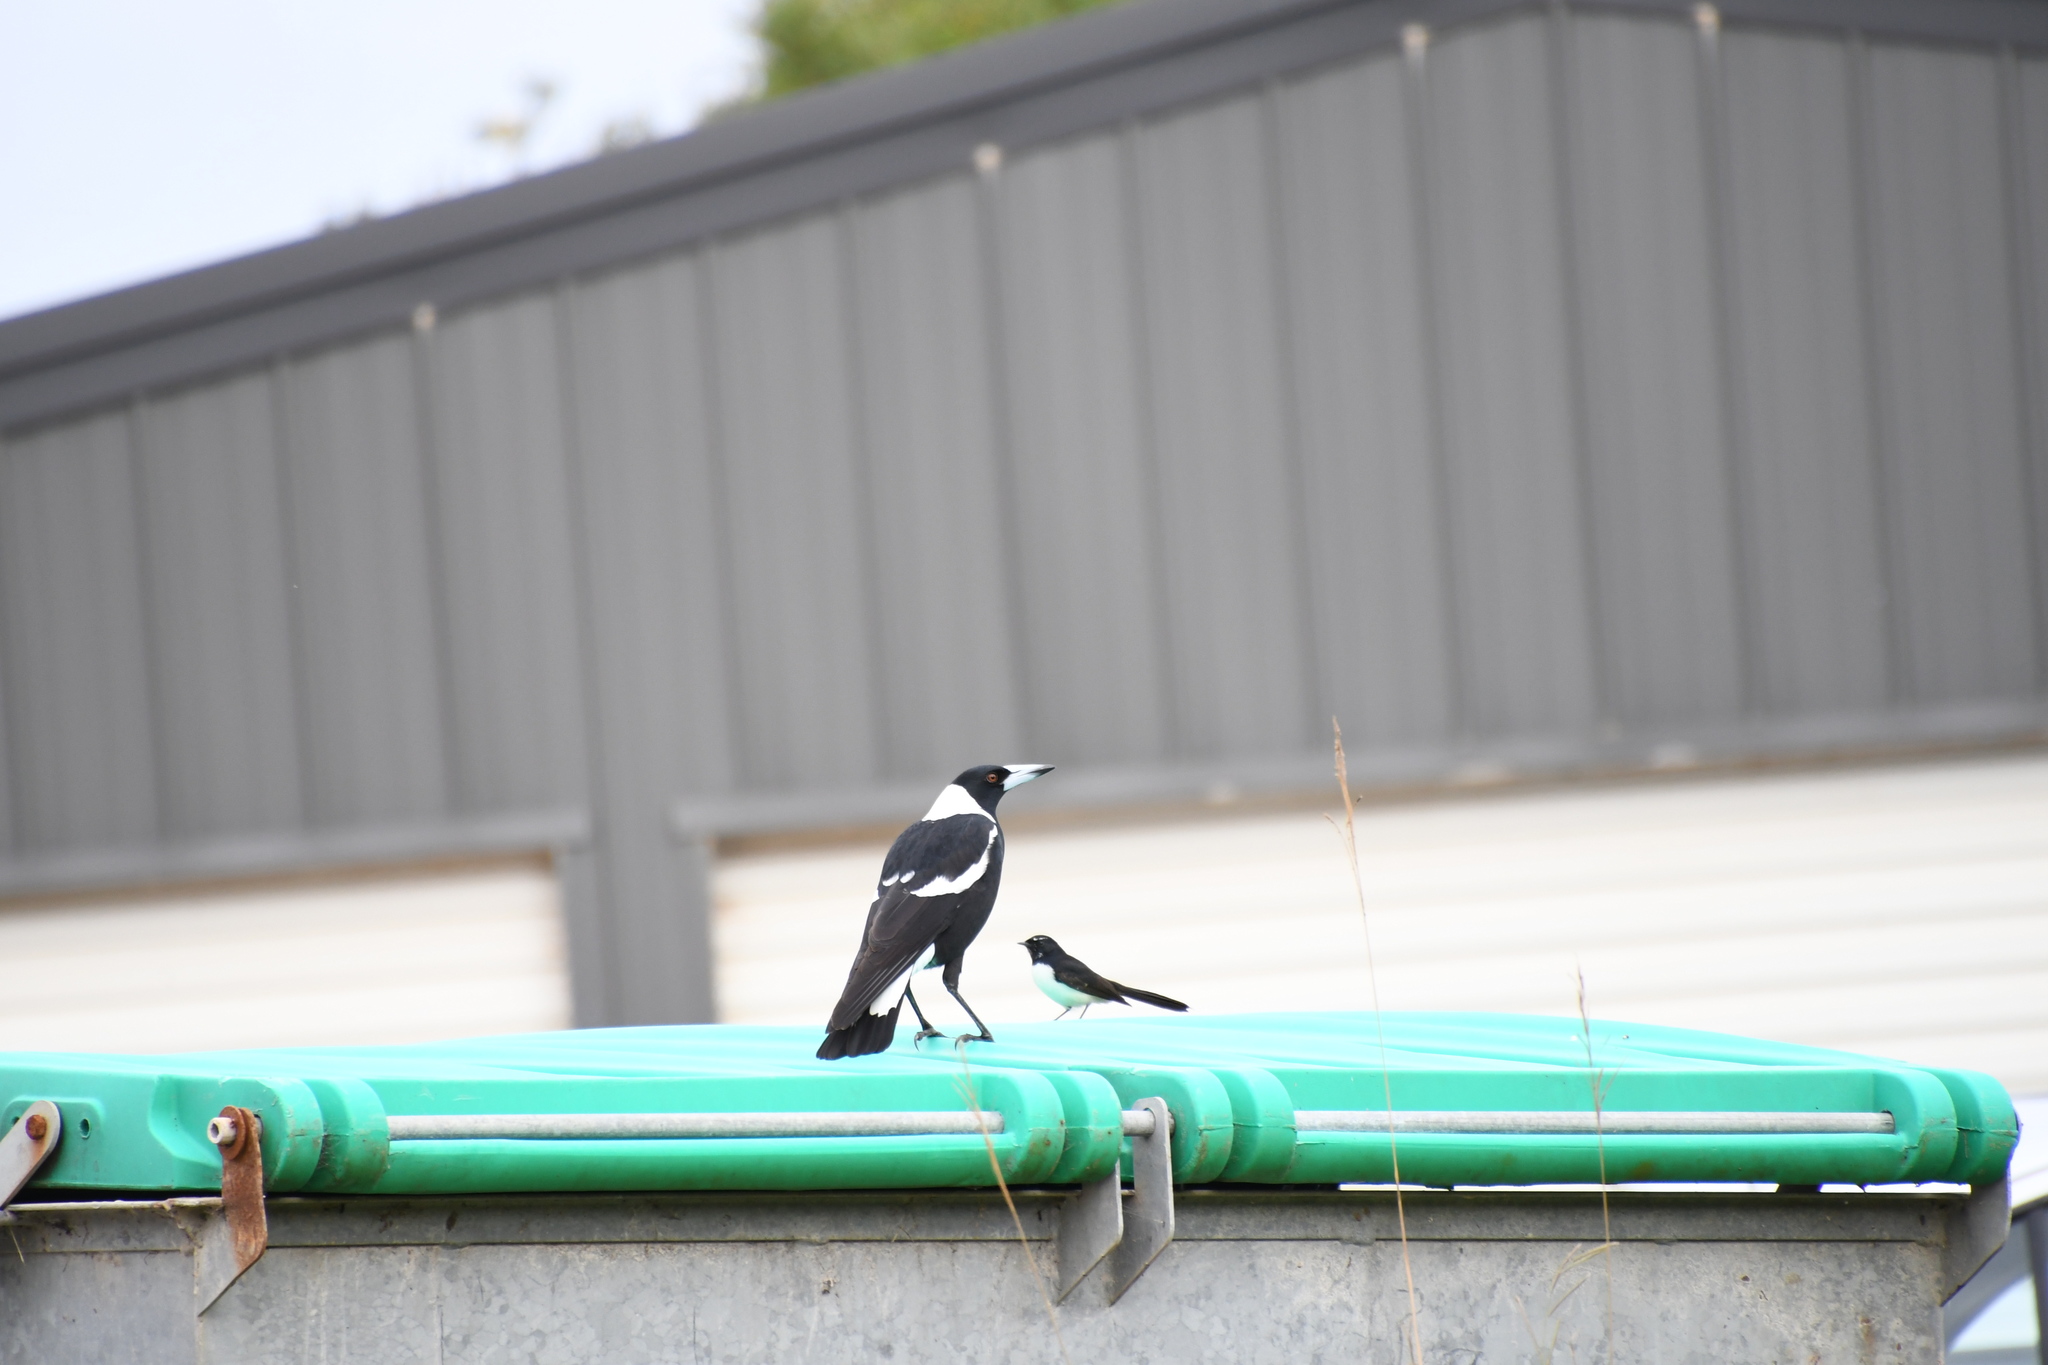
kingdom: Animalia
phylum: Chordata
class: Aves
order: Passeriformes
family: Cracticidae
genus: Gymnorhina
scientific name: Gymnorhina tibicen
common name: Australian magpie
